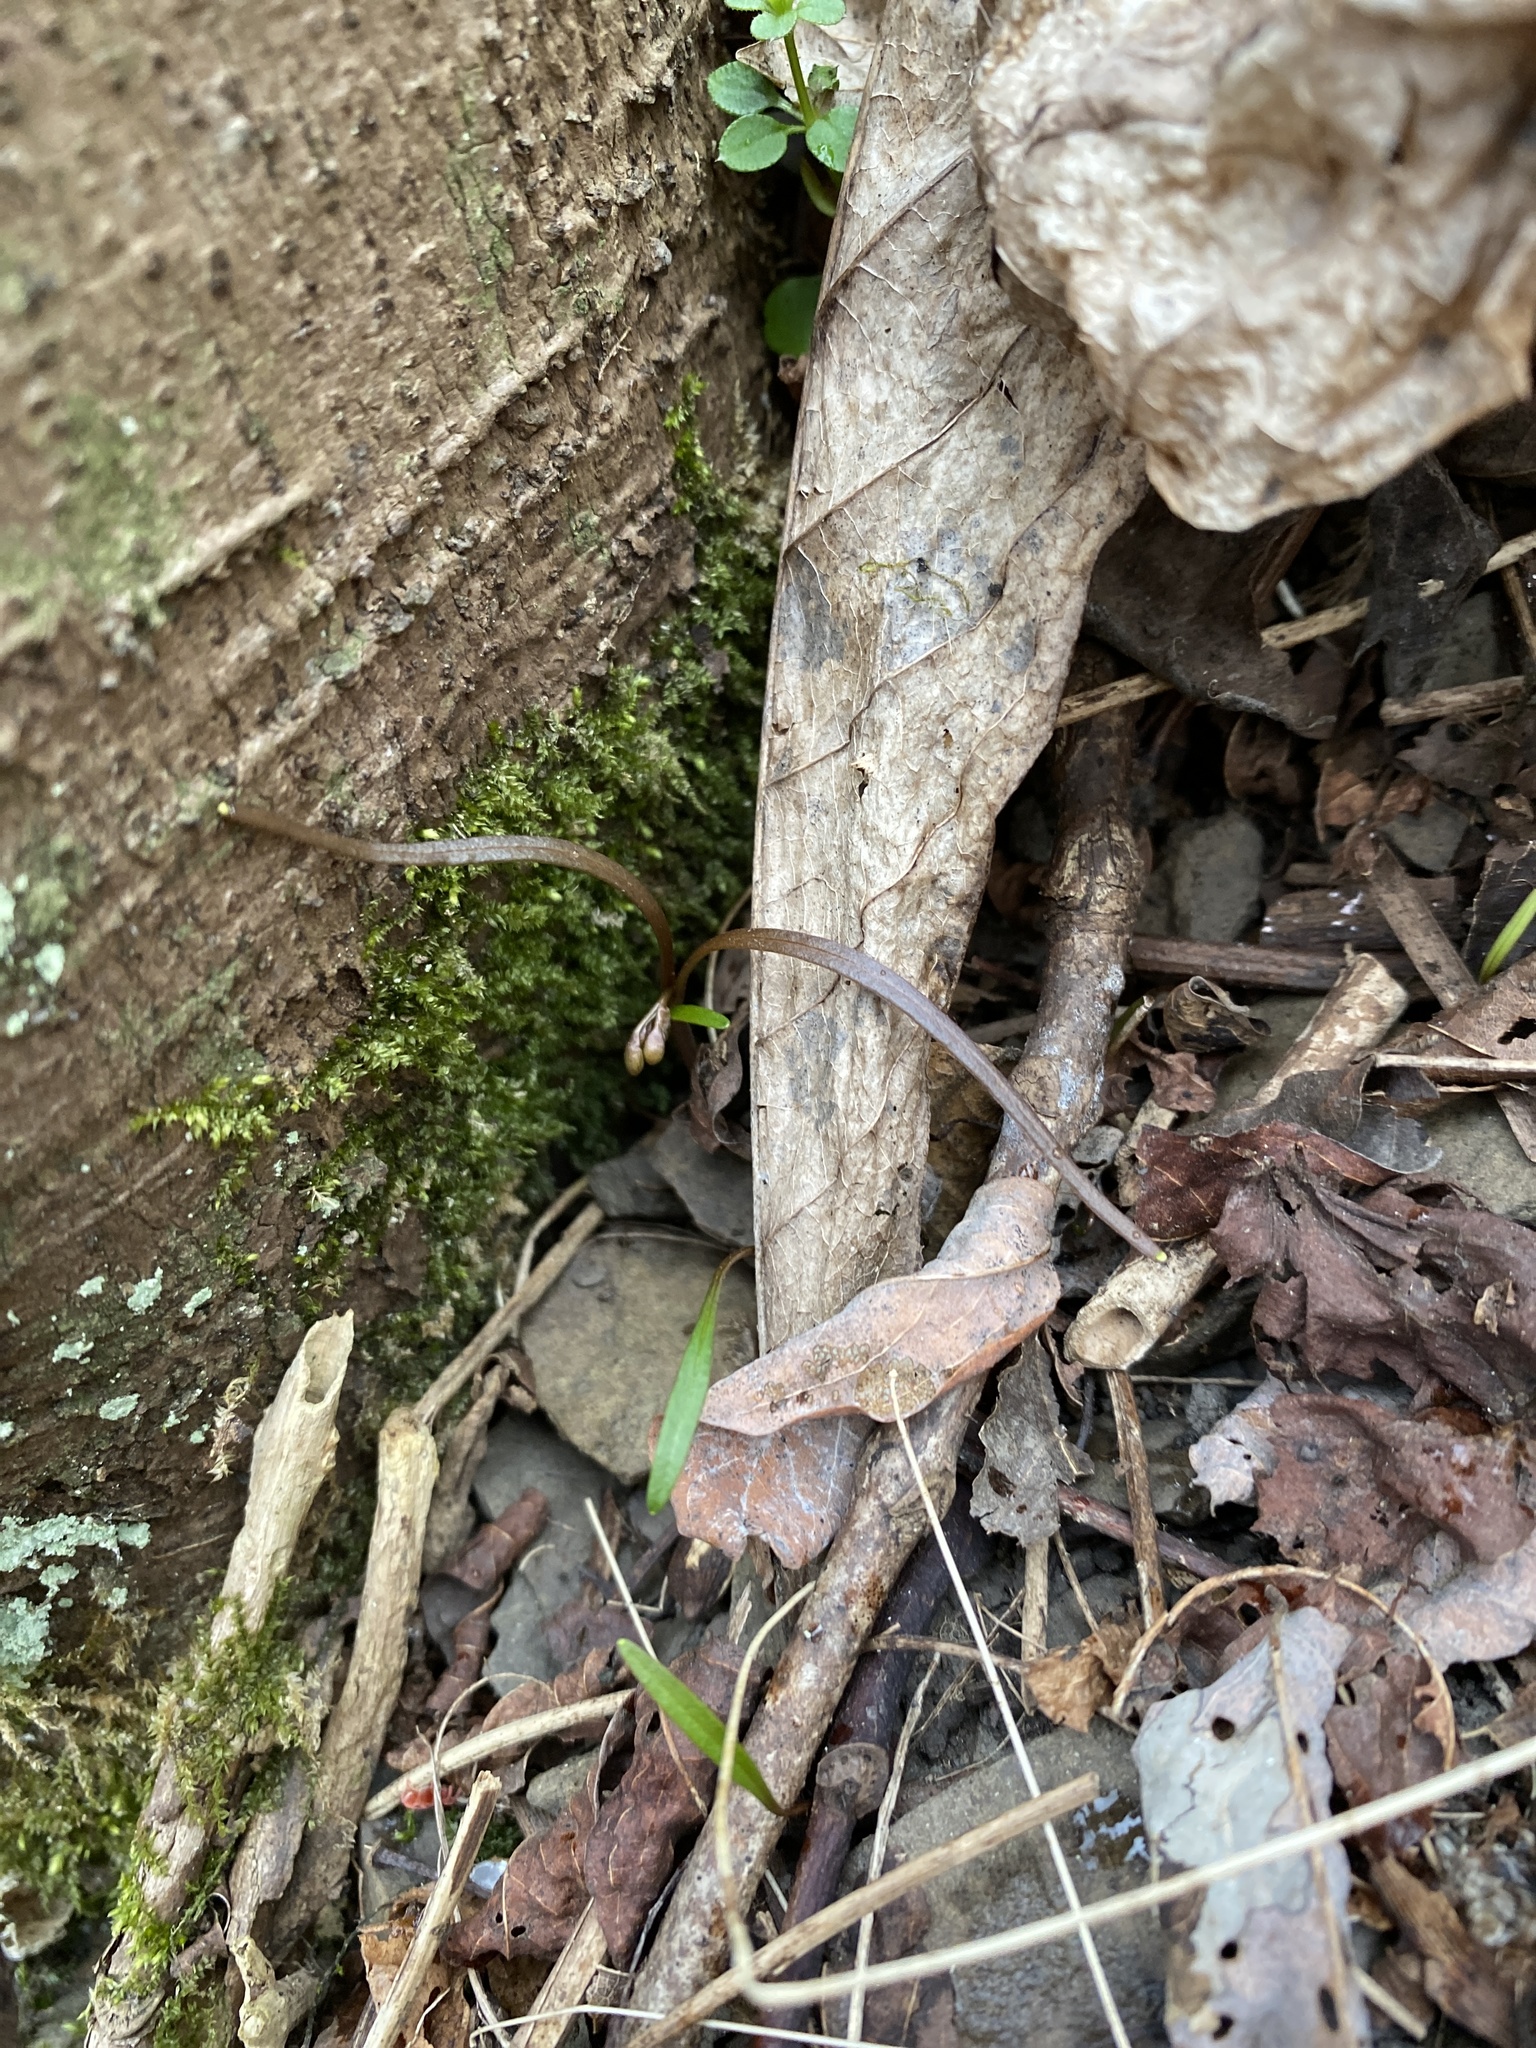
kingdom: Plantae
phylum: Tracheophyta
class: Magnoliopsida
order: Caryophyllales
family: Montiaceae
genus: Claytonia
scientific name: Claytonia virginica
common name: Virginia springbeauty
